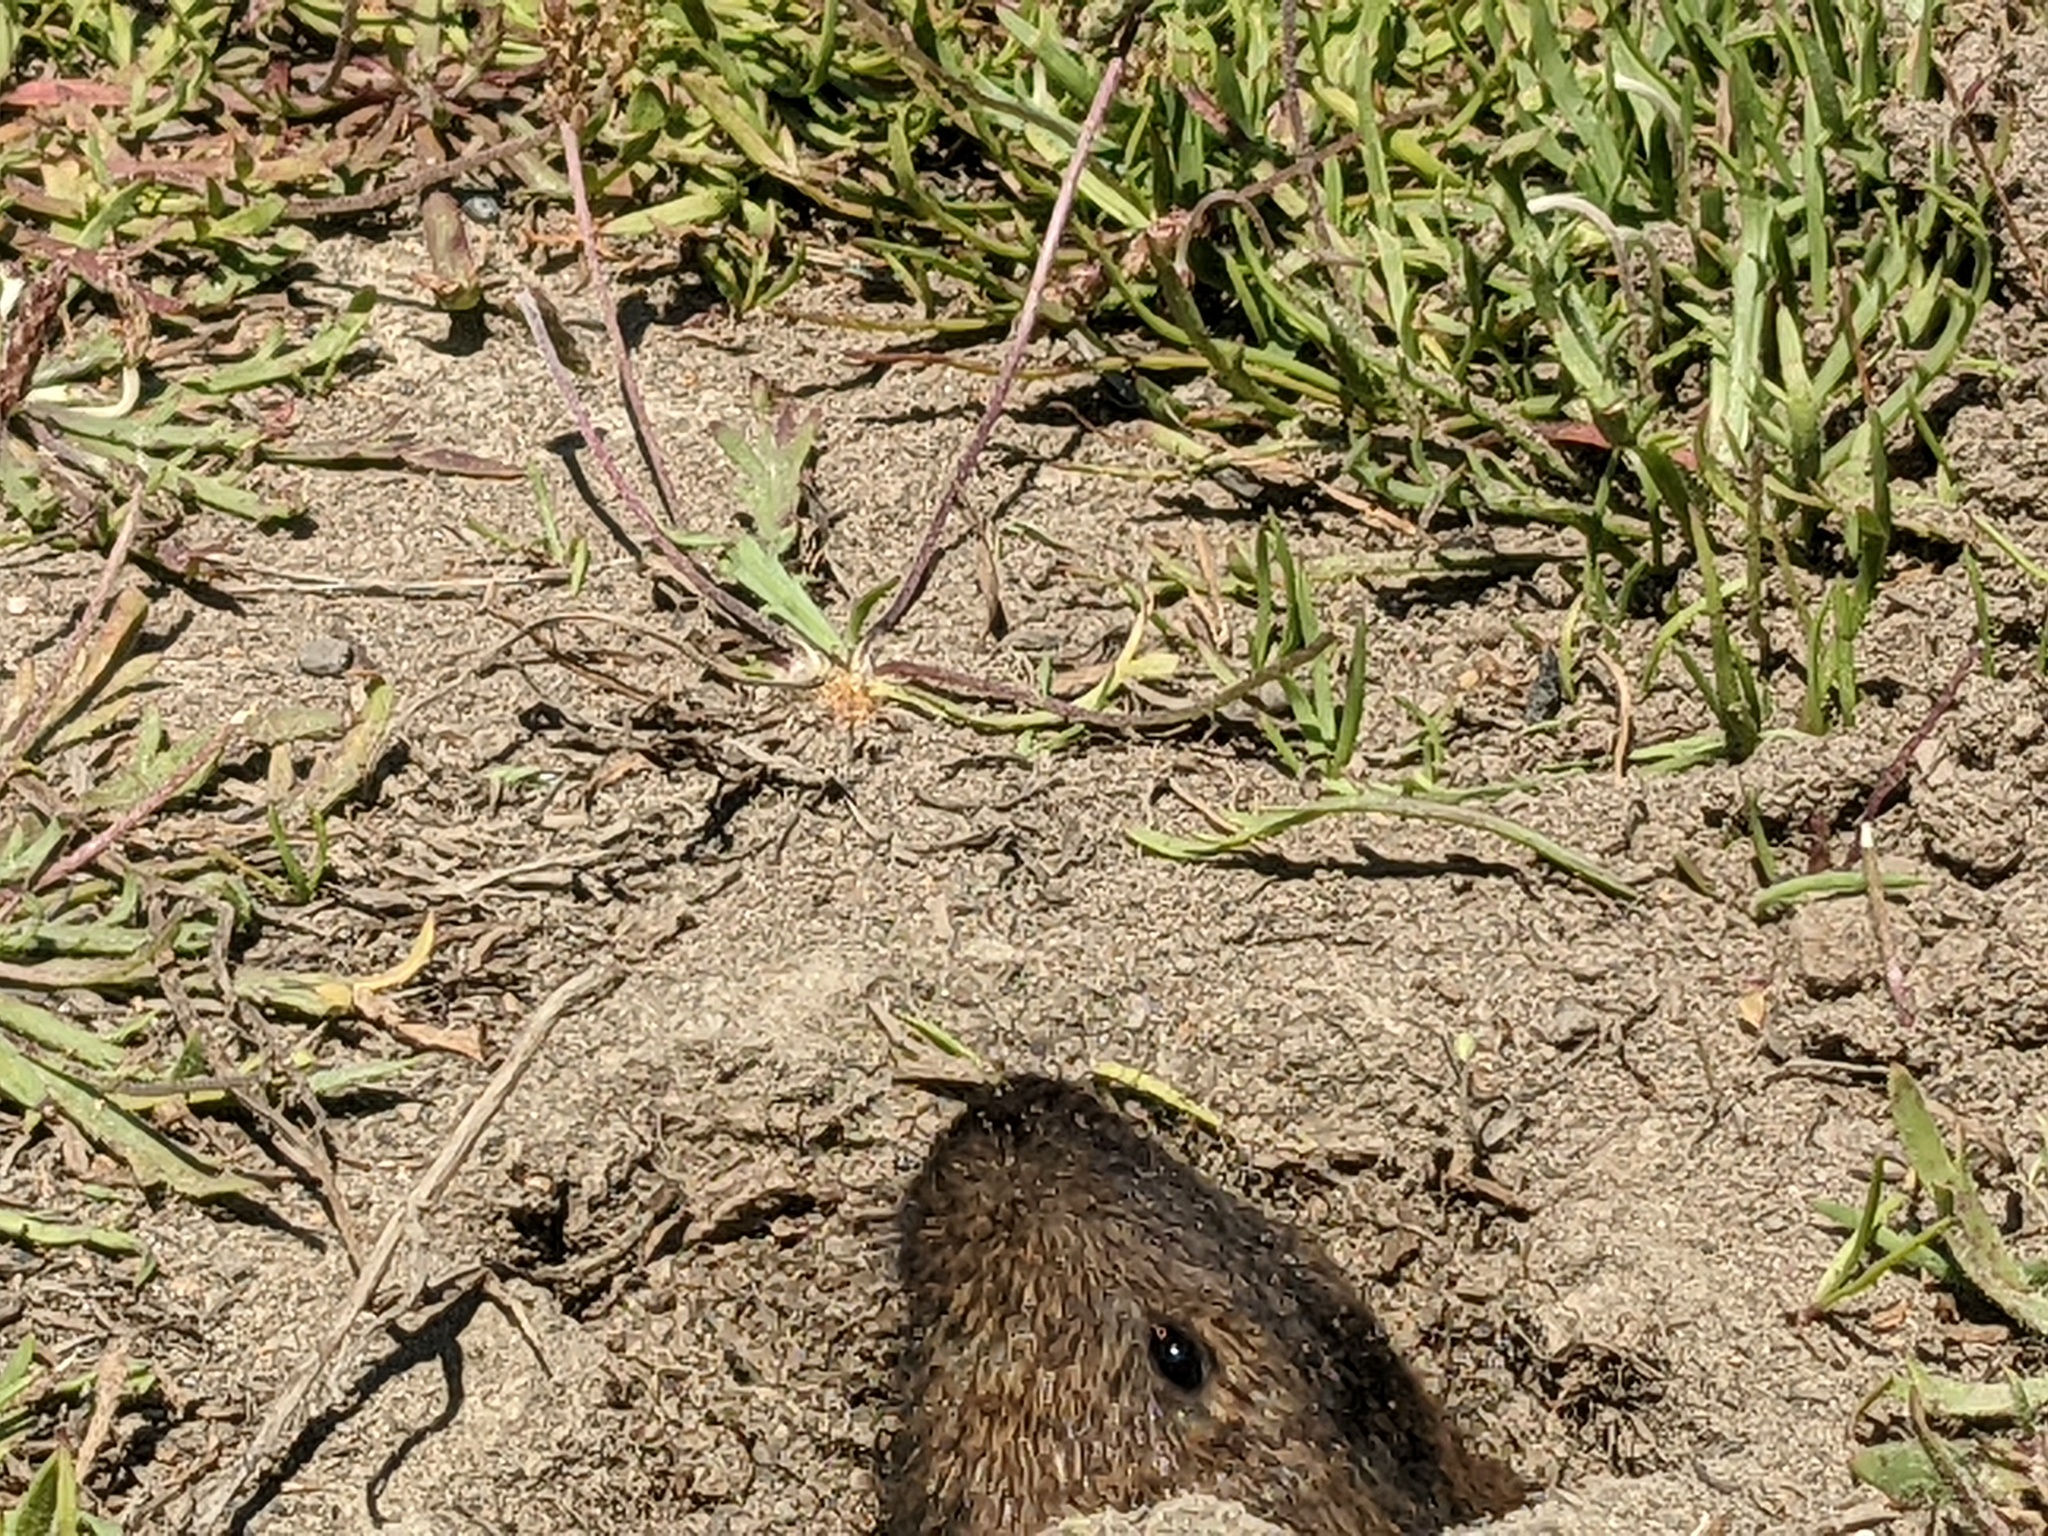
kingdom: Animalia
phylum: Chordata
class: Mammalia
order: Rodentia
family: Geomyidae
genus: Thomomys
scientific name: Thomomys bottae
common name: Botta's pocket gopher
